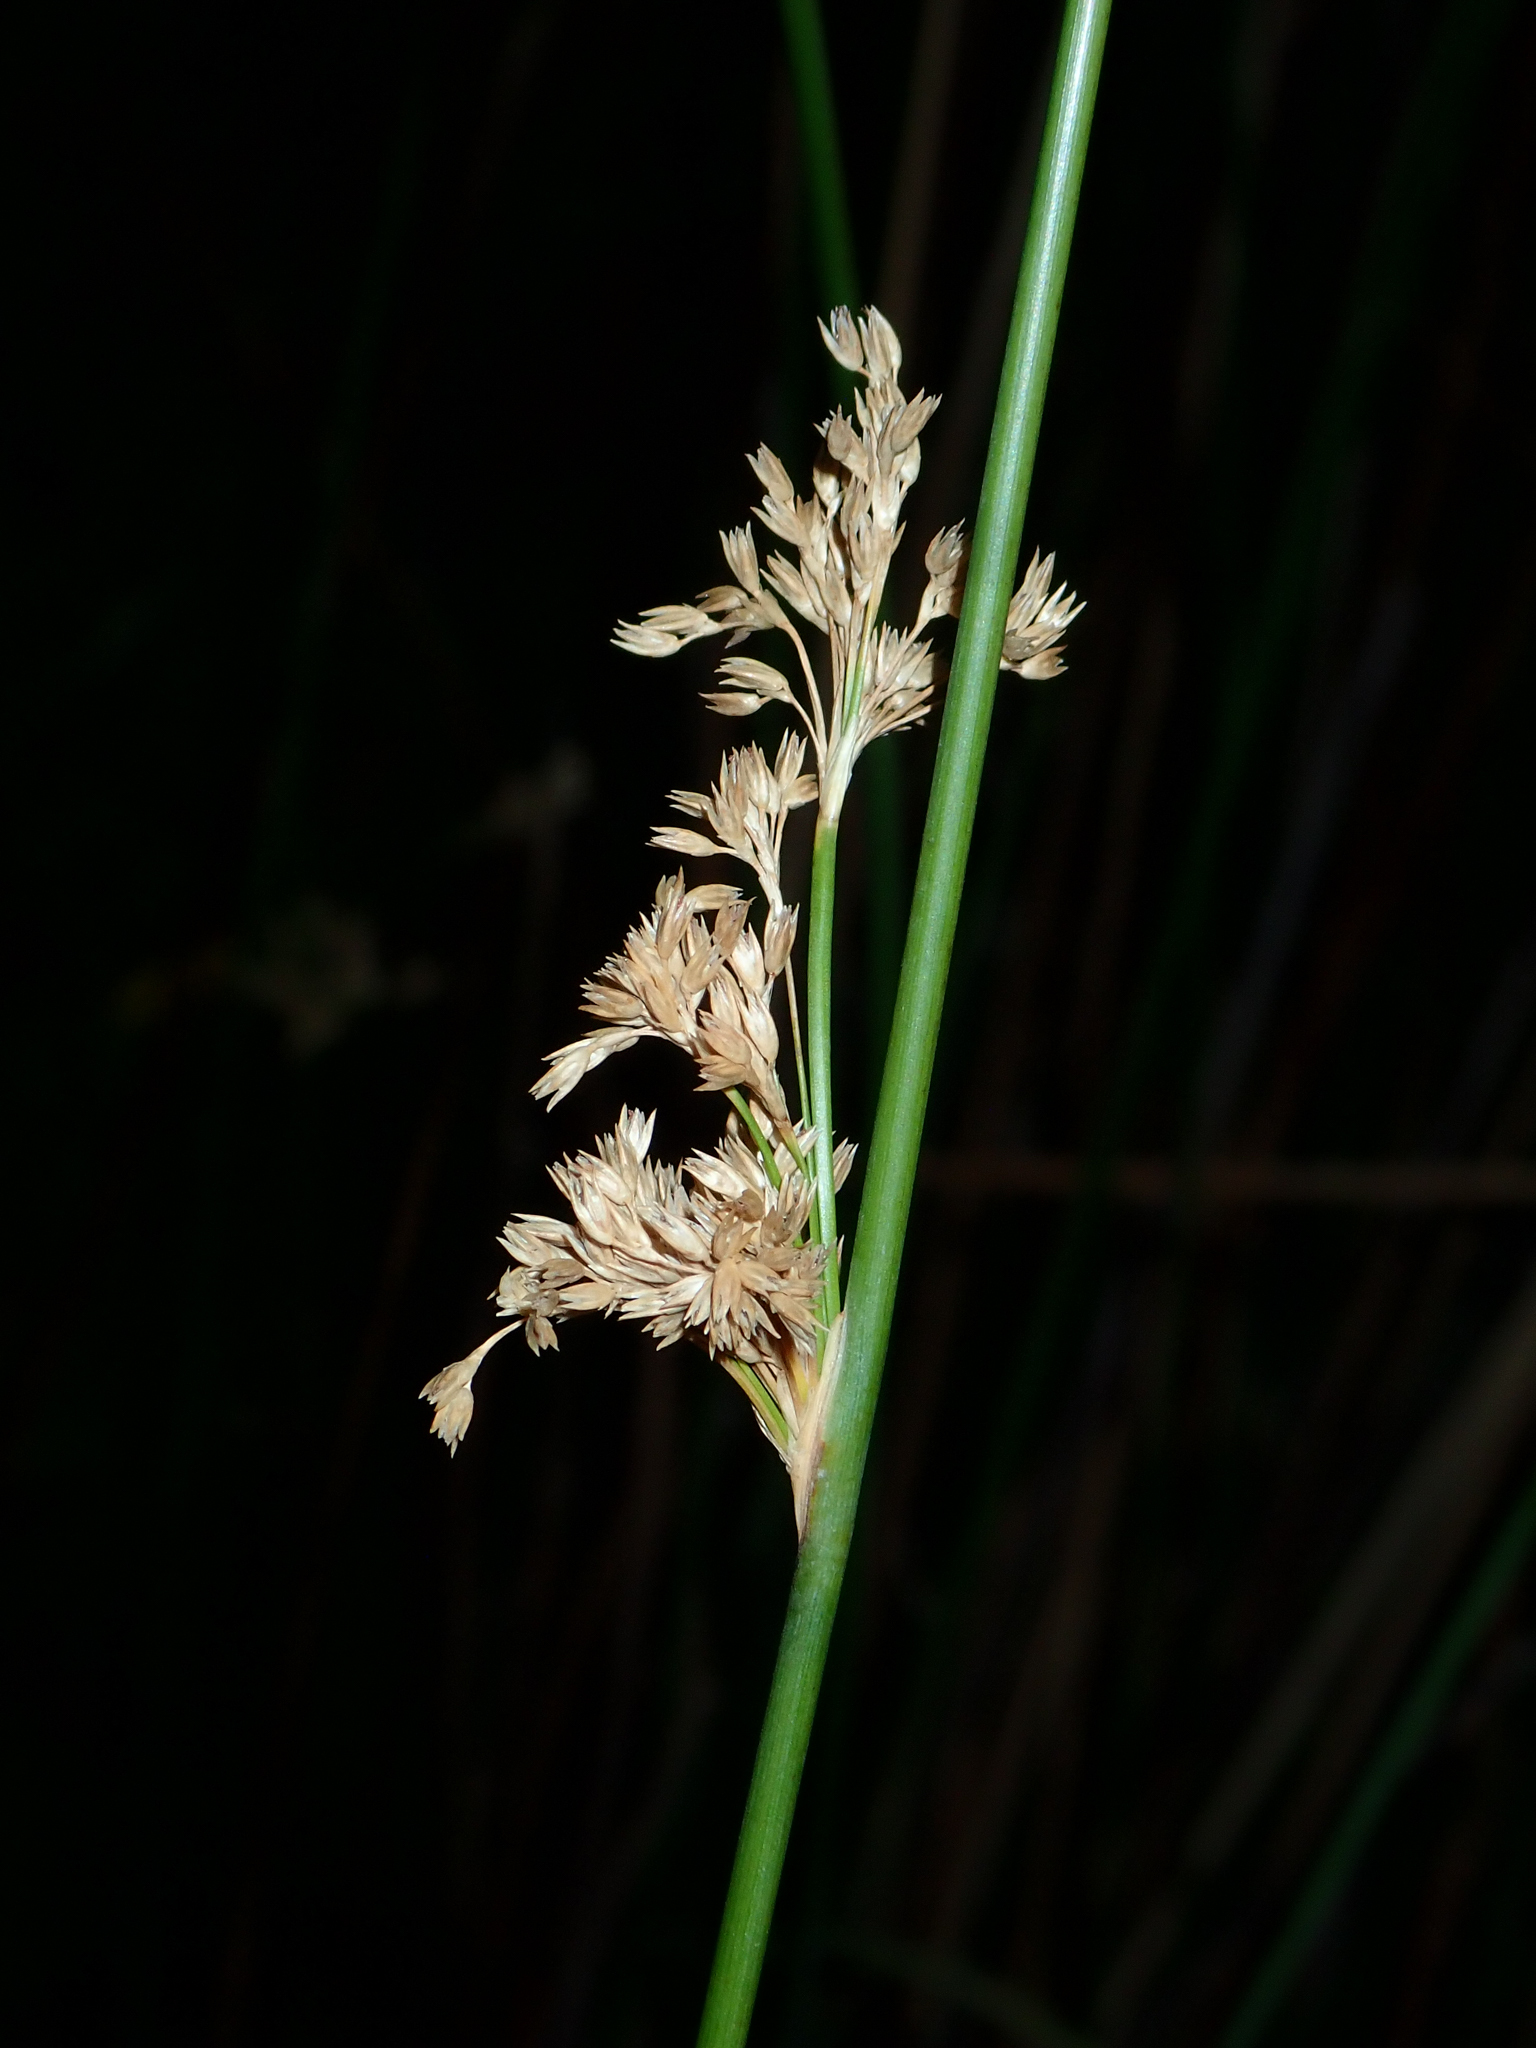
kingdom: Plantae
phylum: Tracheophyta
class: Liliopsida
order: Poales
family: Juncaceae
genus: Juncus
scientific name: Juncus edgariae
